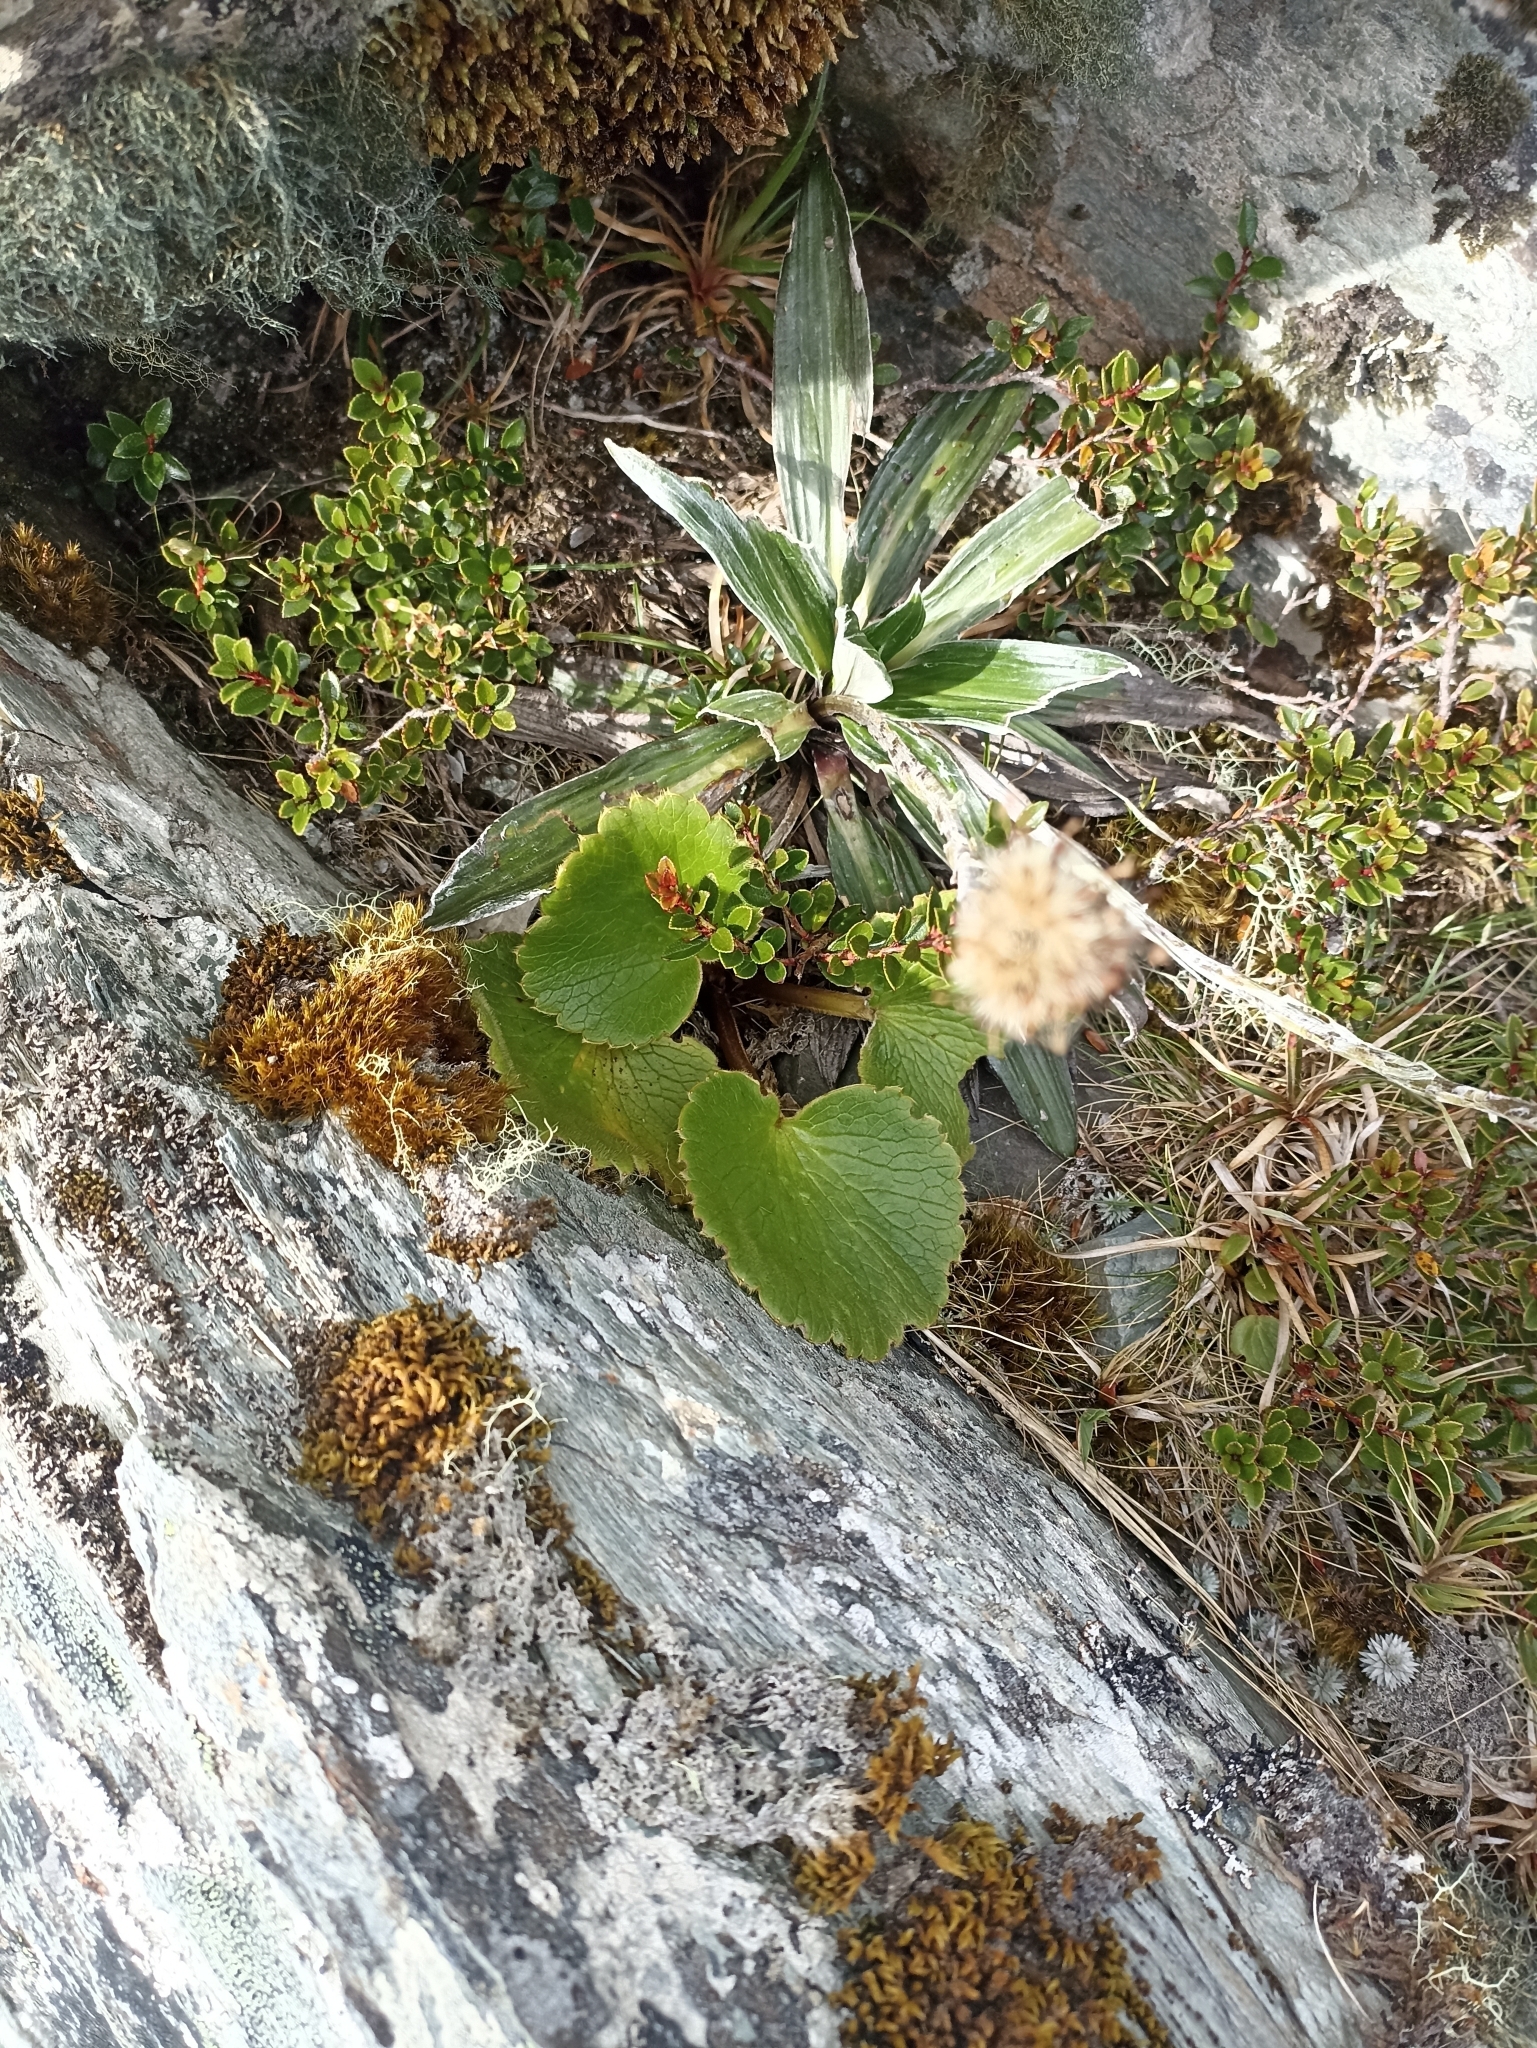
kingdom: Plantae
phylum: Tracheophyta
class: Magnoliopsida
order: Ranunculales
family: Ranunculaceae
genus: Ranunculus
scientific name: Ranunculus insignis
